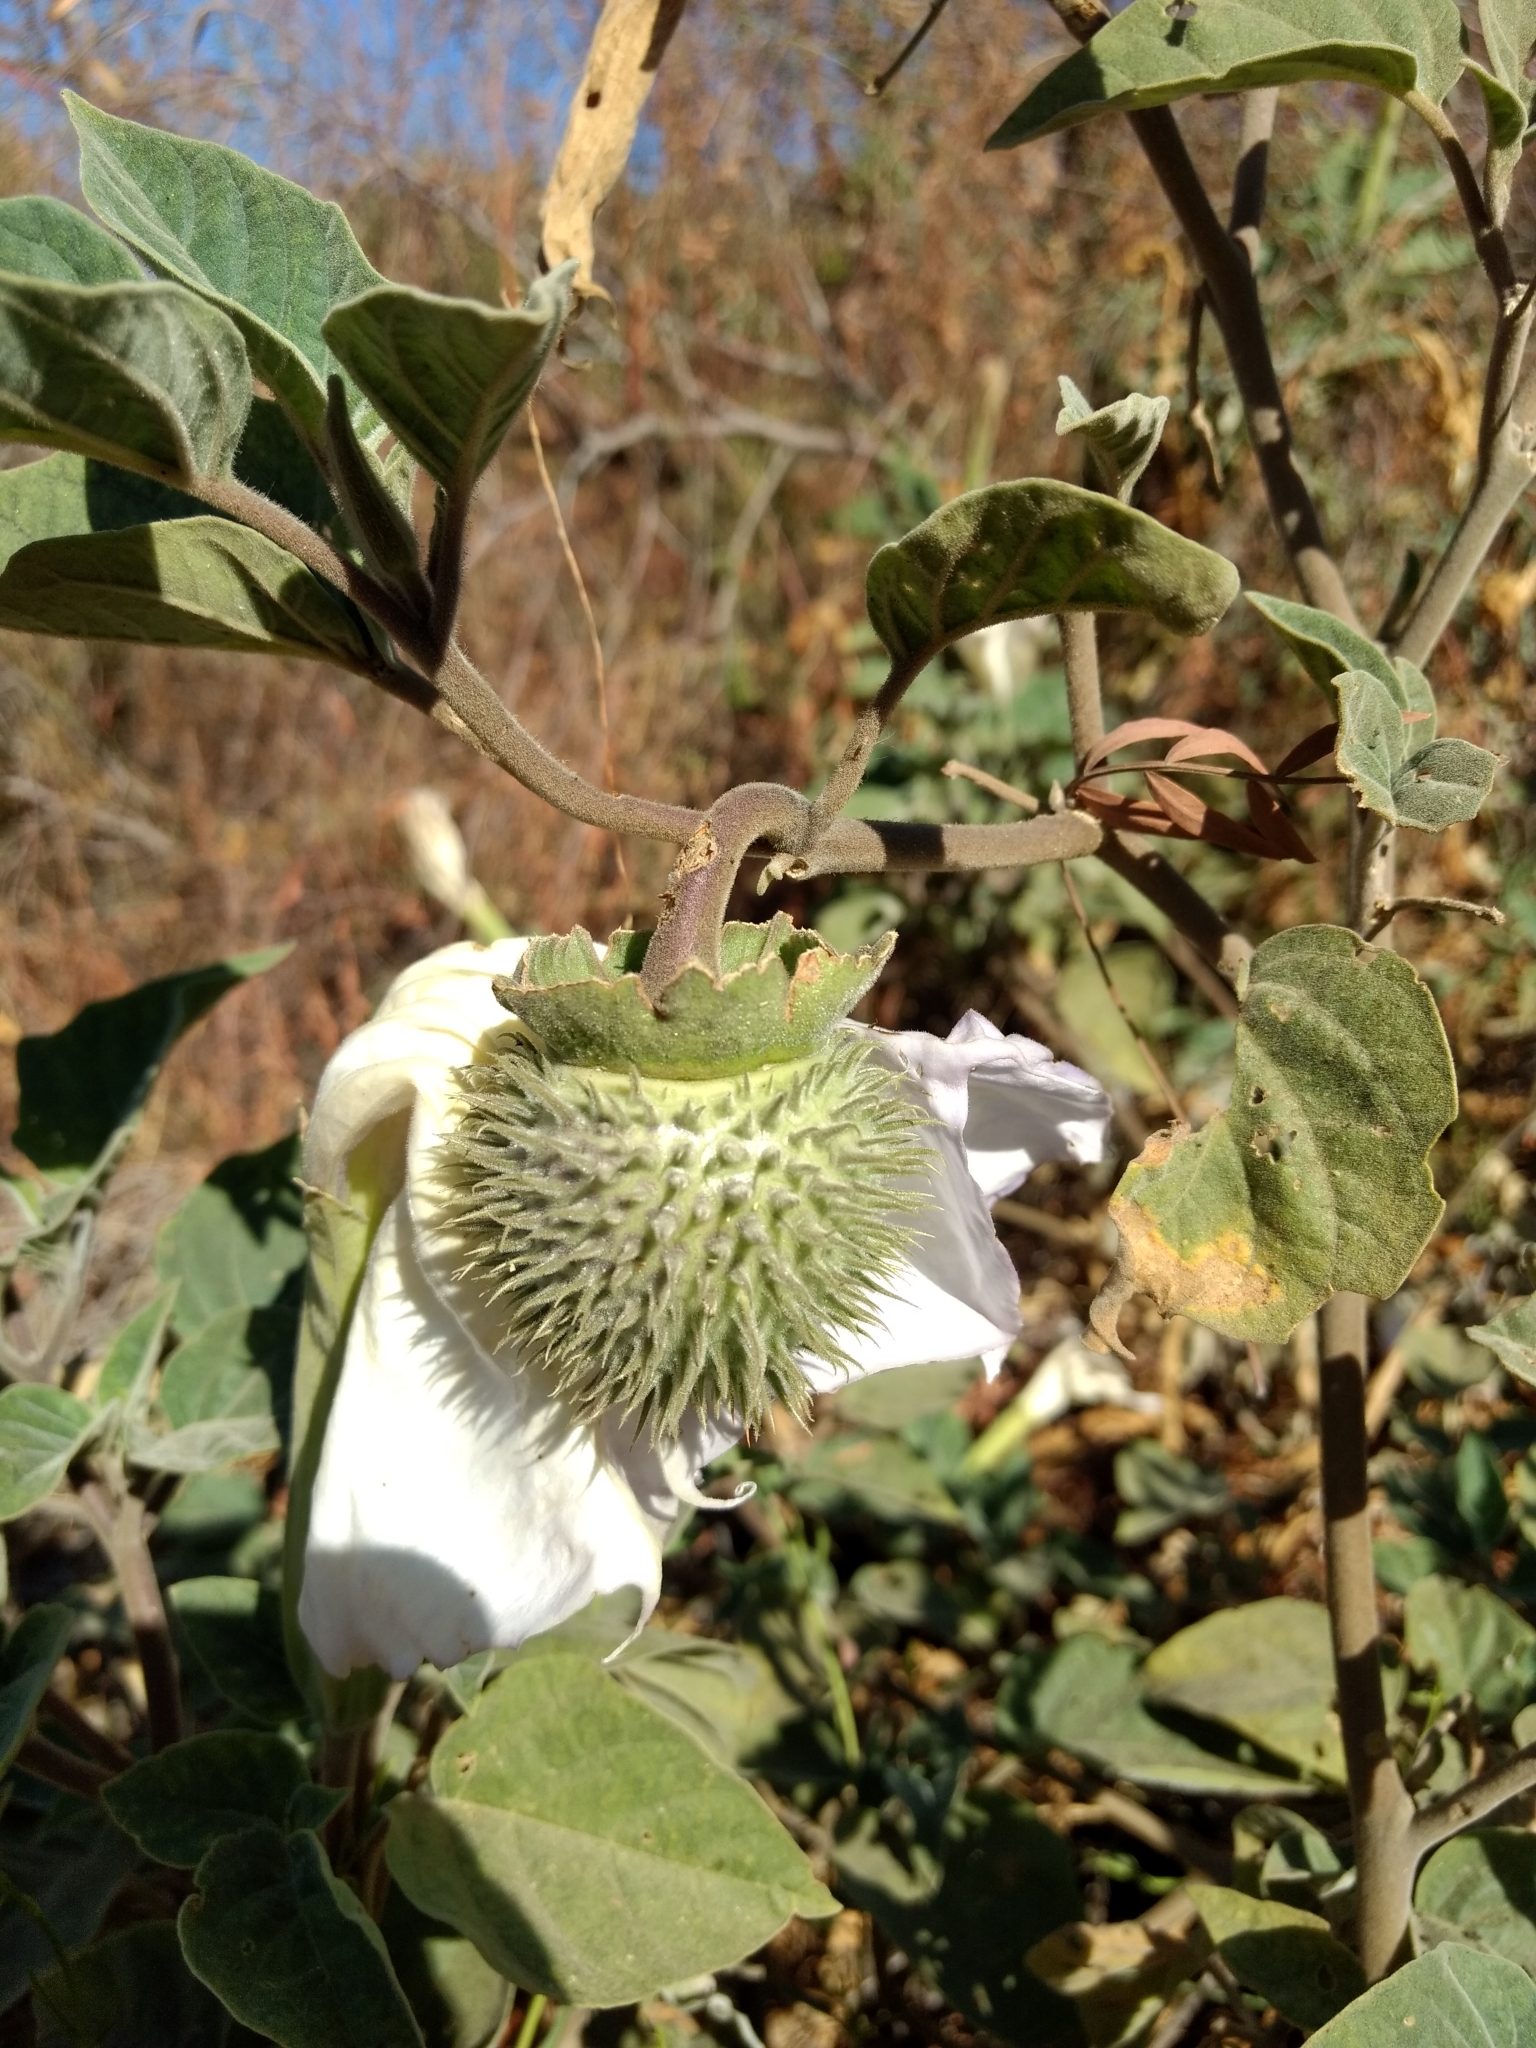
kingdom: Plantae
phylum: Tracheophyta
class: Magnoliopsida
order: Solanales
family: Solanaceae
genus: Datura
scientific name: Datura wrightii
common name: Sacred thorn-apple
